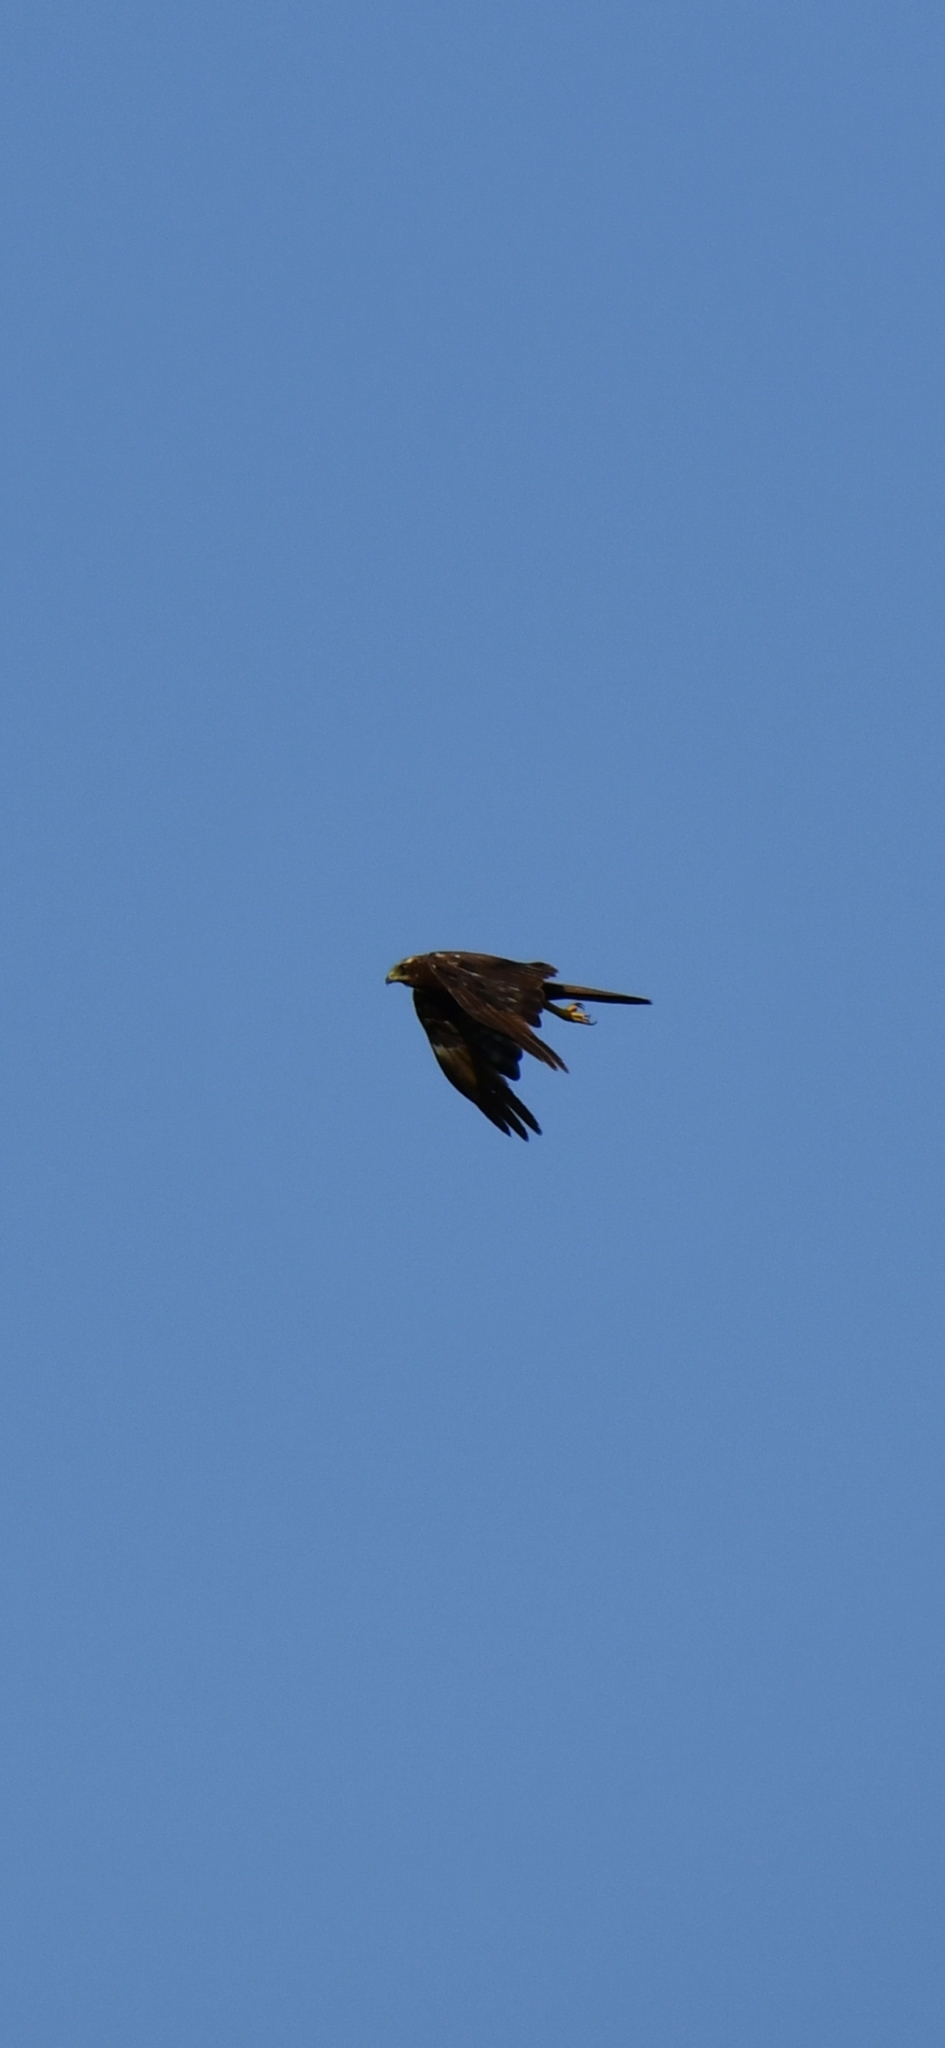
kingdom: Animalia
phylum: Chordata
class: Aves
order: Accipitriformes
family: Accipitridae
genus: Circus
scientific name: Circus aeruginosus
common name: Western marsh harrier
